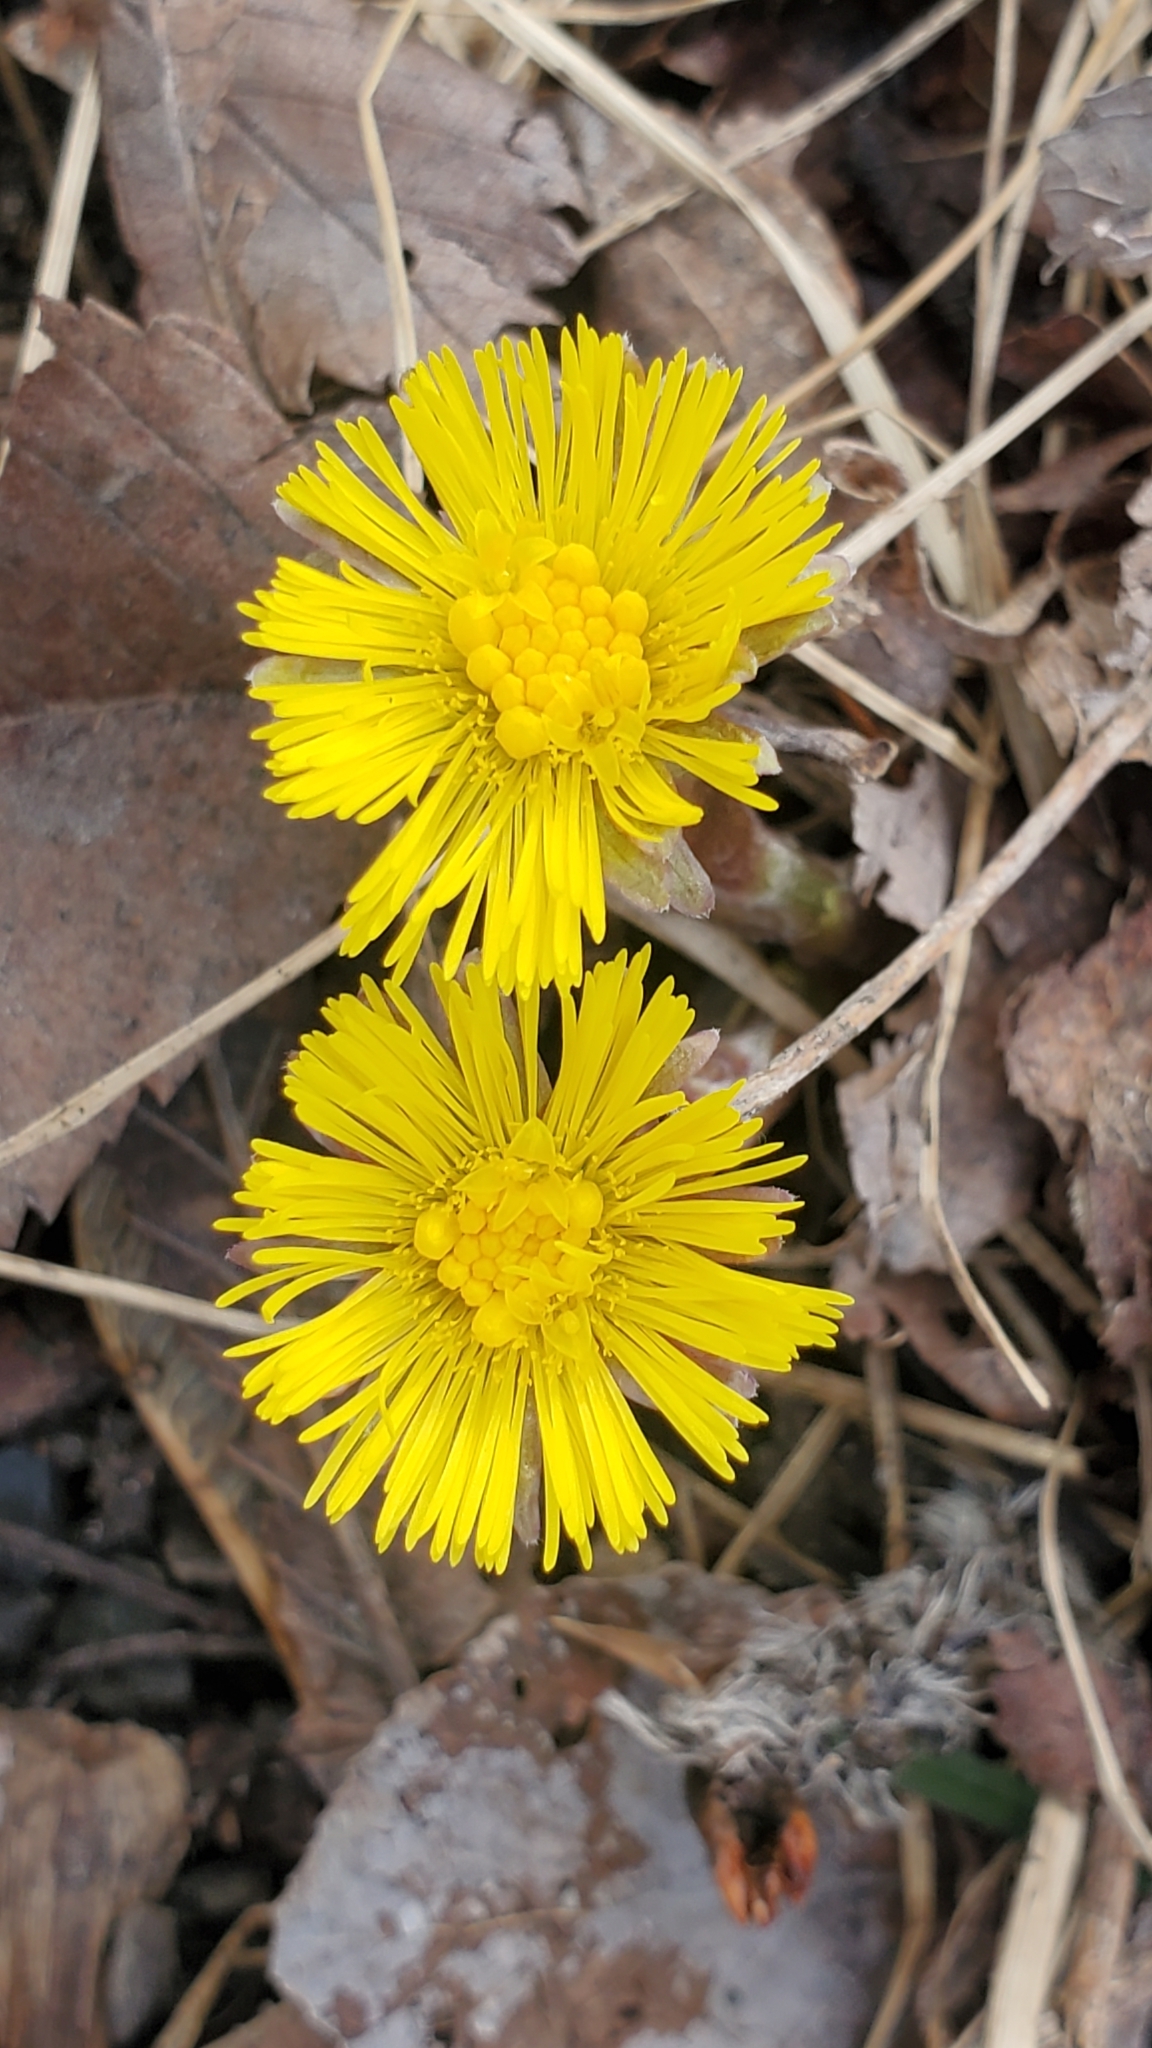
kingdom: Plantae
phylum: Tracheophyta
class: Magnoliopsida
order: Asterales
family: Asteraceae
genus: Tussilago
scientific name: Tussilago farfara
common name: Coltsfoot
